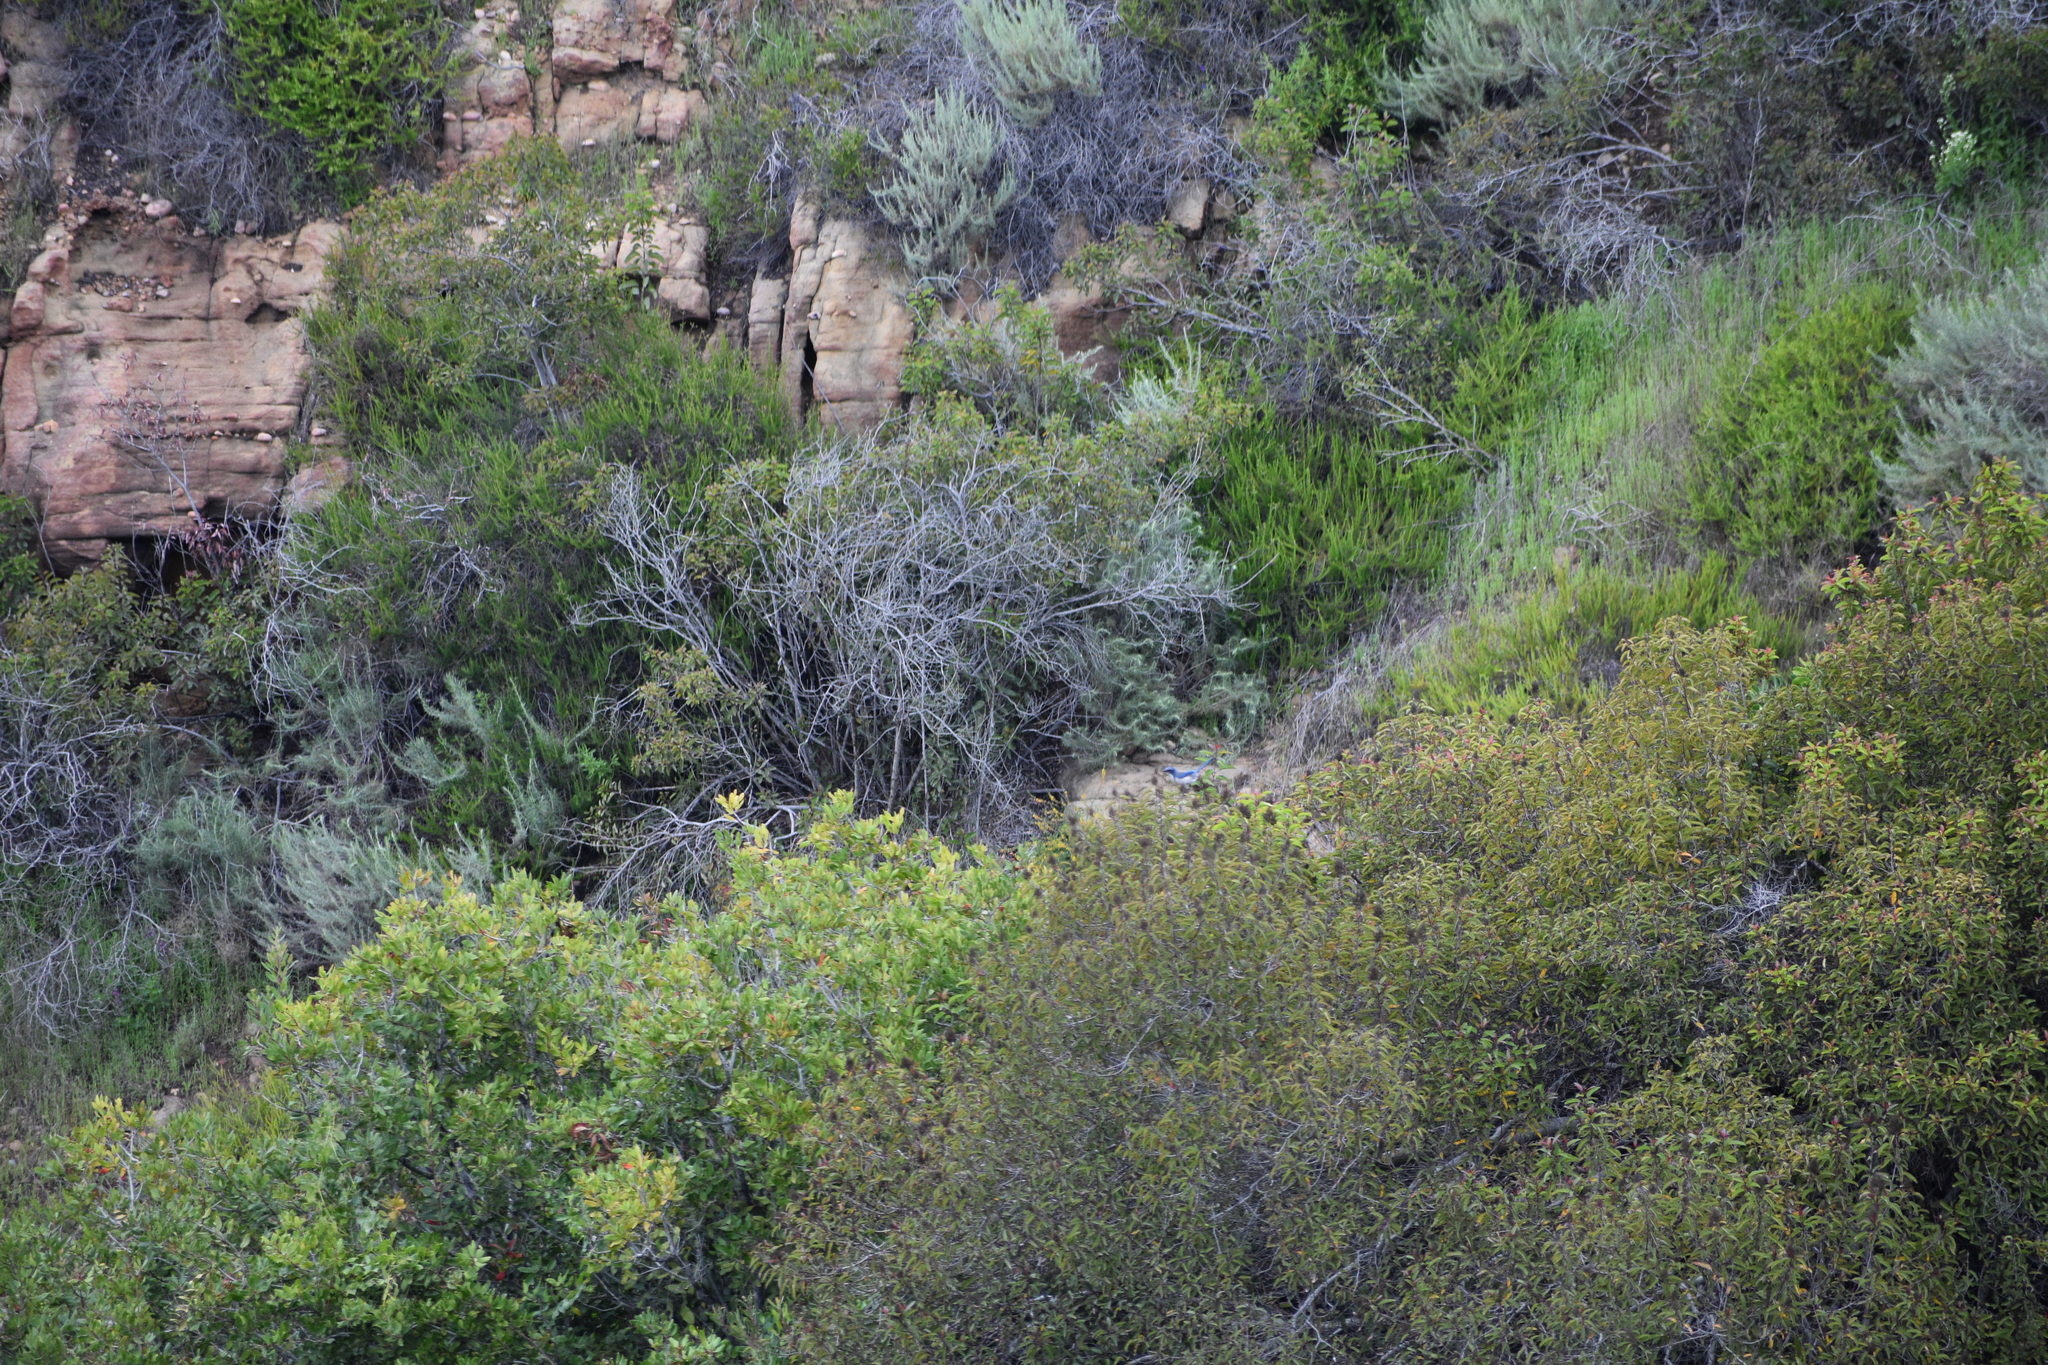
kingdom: Animalia
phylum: Chordata
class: Aves
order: Passeriformes
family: Corvidae
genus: Aphelocoma
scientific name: Aphelocoma californica
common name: California scrub-jay
